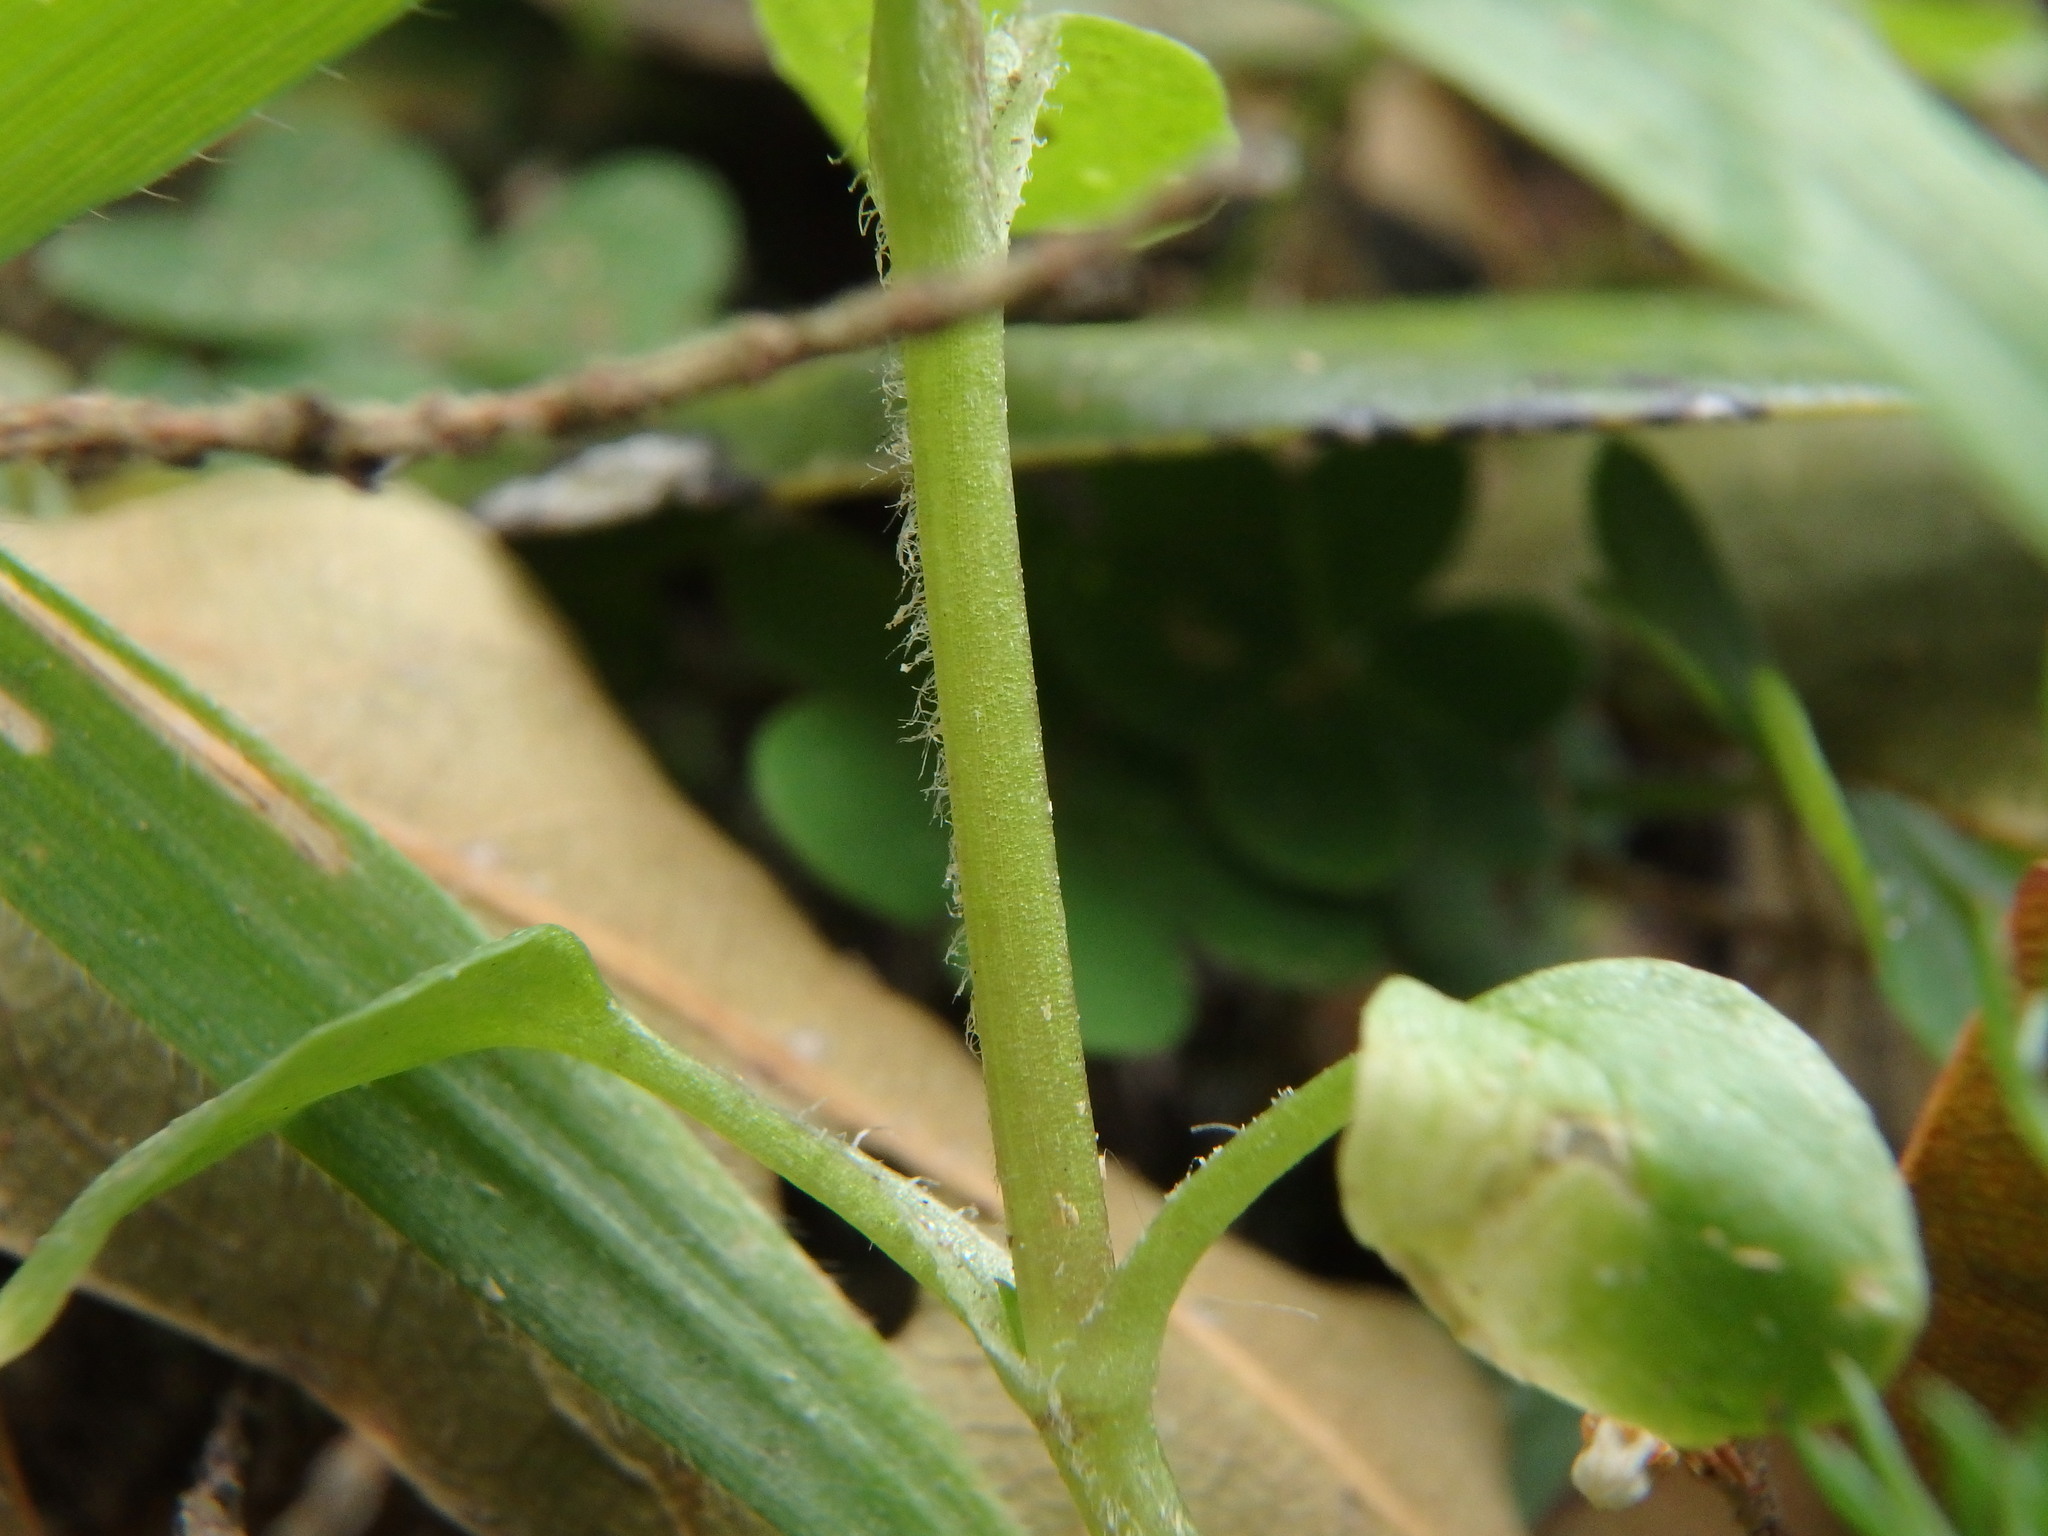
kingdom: Plantae
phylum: Tracheophyta
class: Magnoliopsida
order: Caryophyllales
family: Caryophyllaceae
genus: Stellaria
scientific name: Stellaria media
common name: Common chickweed
